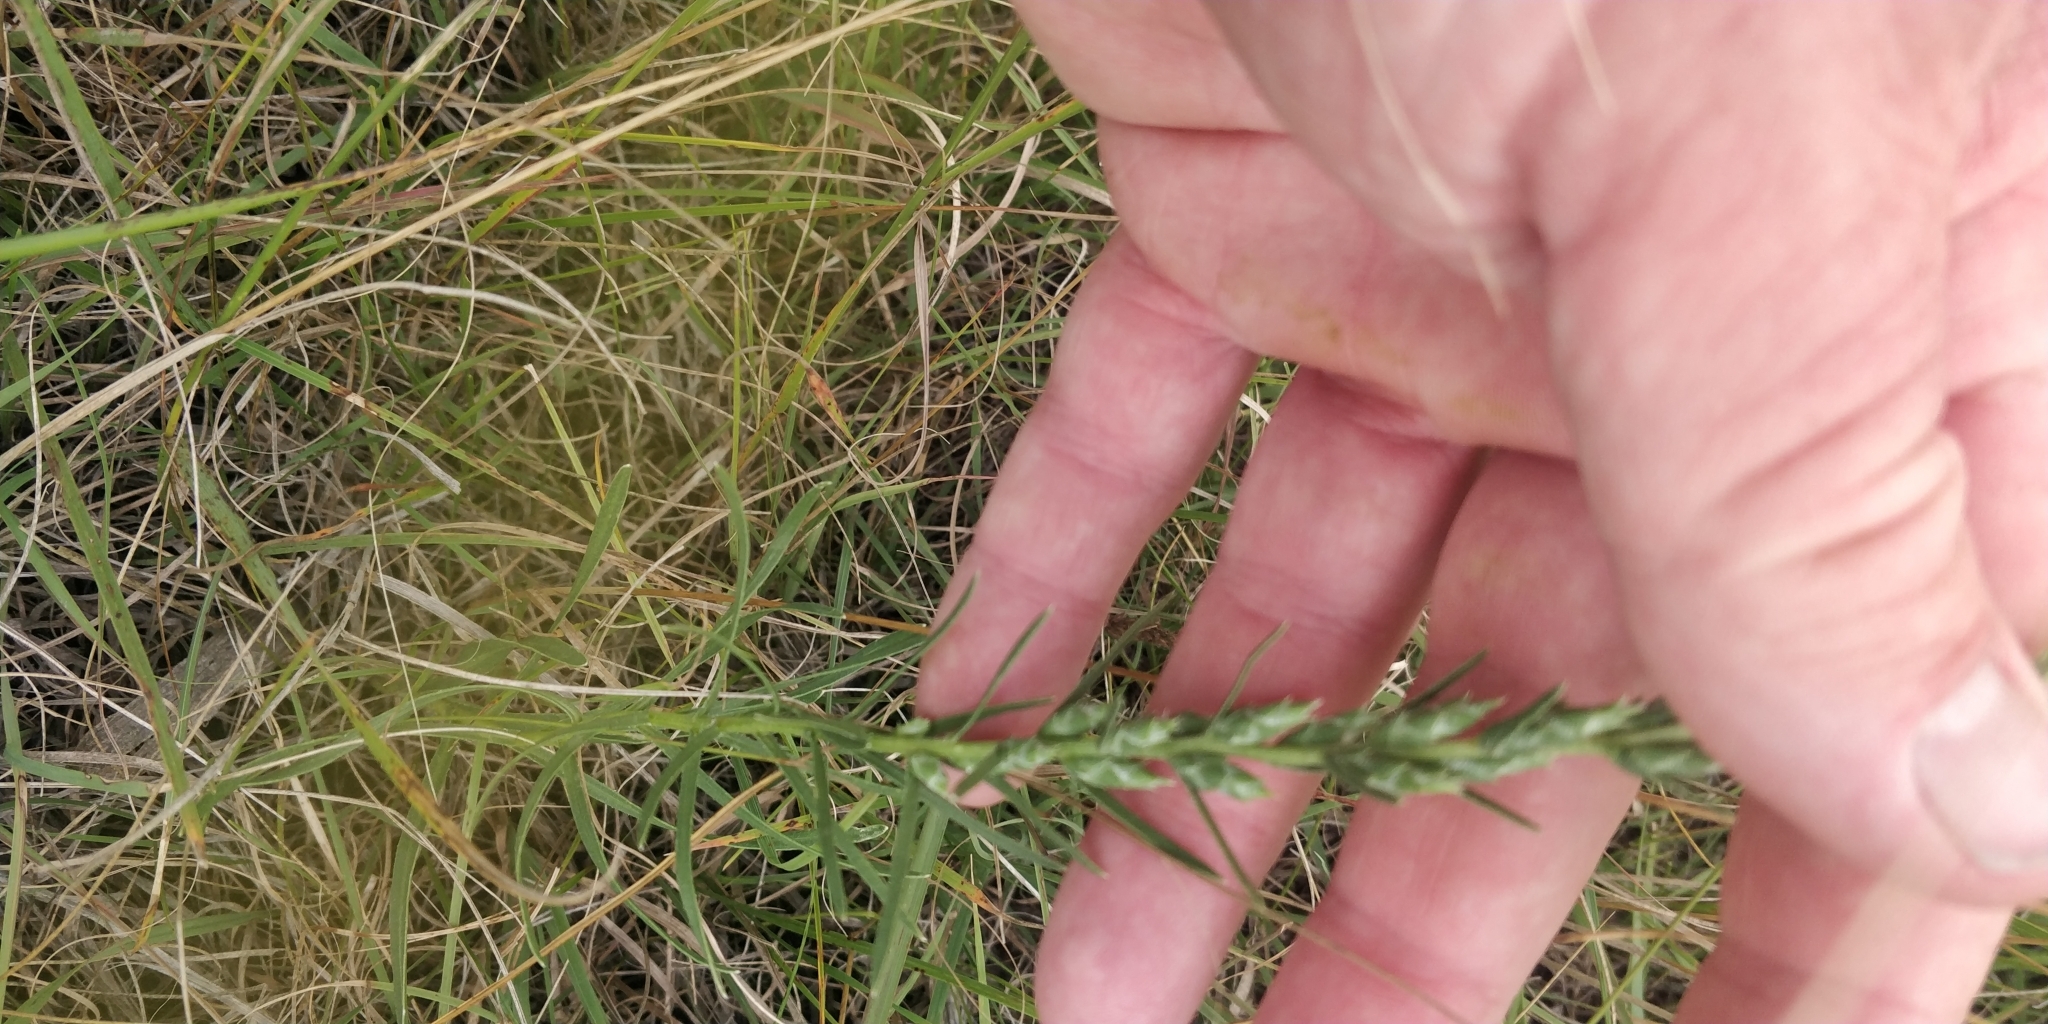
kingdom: Plantae
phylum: Tracheophyta
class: Magnoliopsida
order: Asterales
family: Asteraceae
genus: Liatris
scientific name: Liatris punctata
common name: Dotted gayfeather
